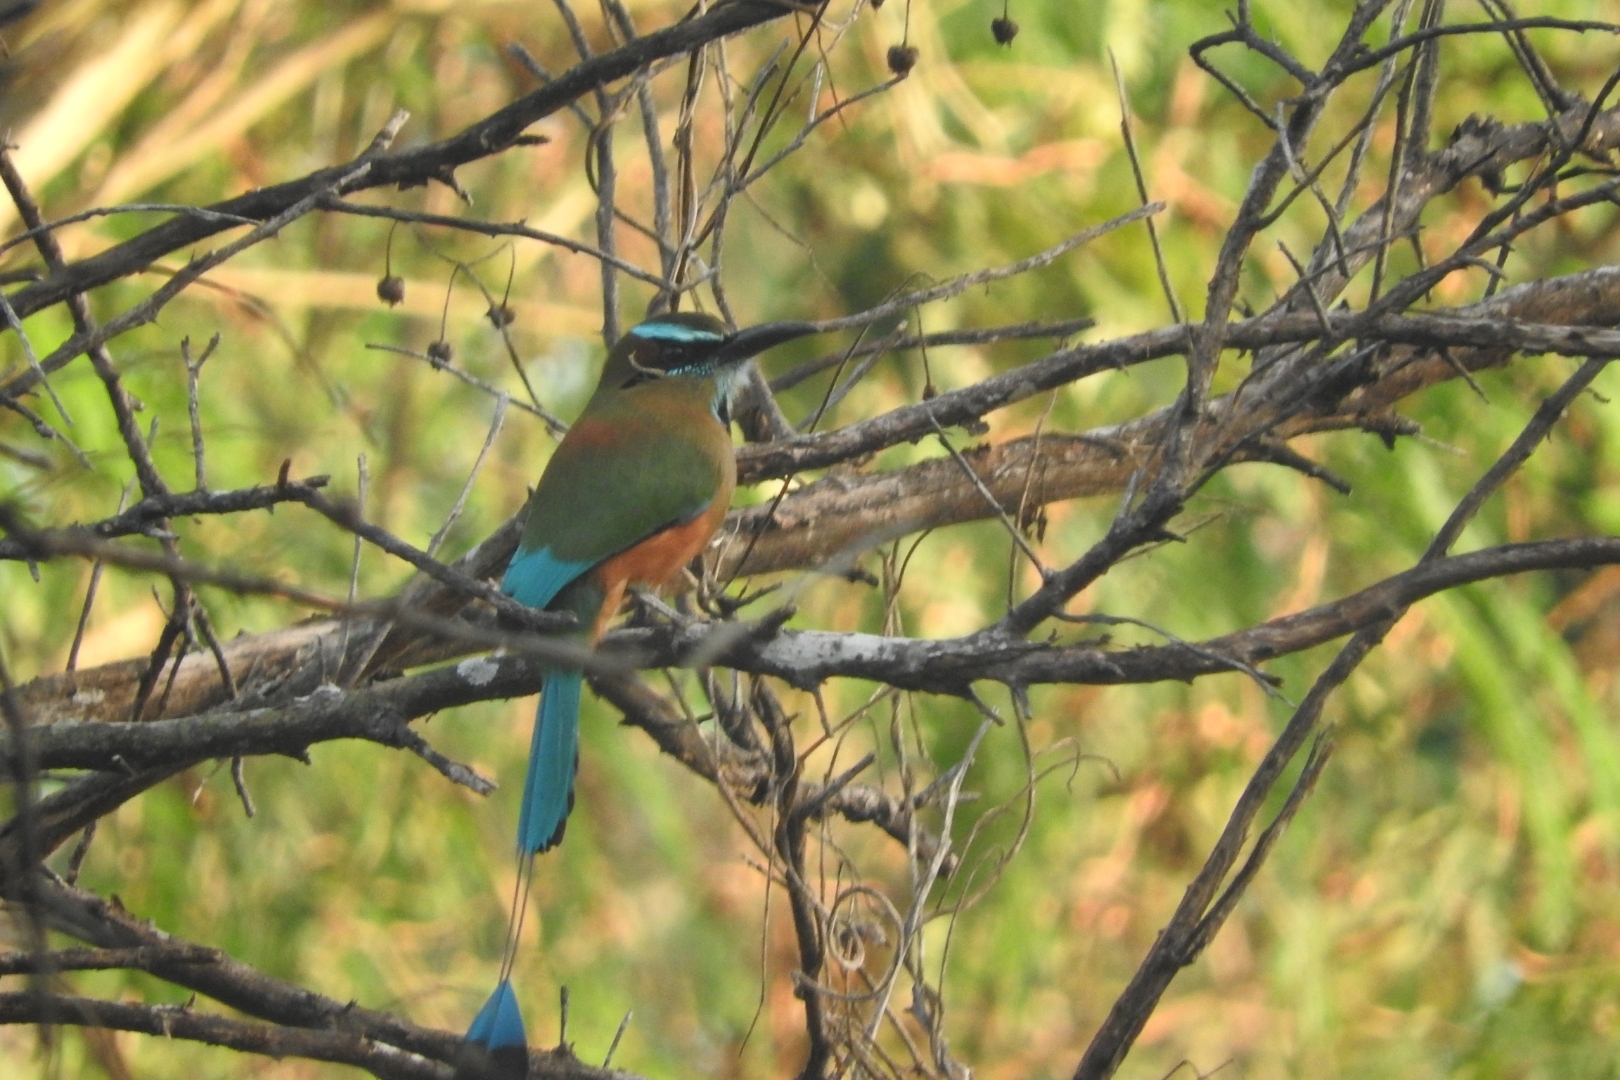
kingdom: Animalia
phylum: Chordata
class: Aves
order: Coraciiformes
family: Momotidae
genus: Eumomota
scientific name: Eumomota superciliosa
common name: Turquoise-browed motmot
